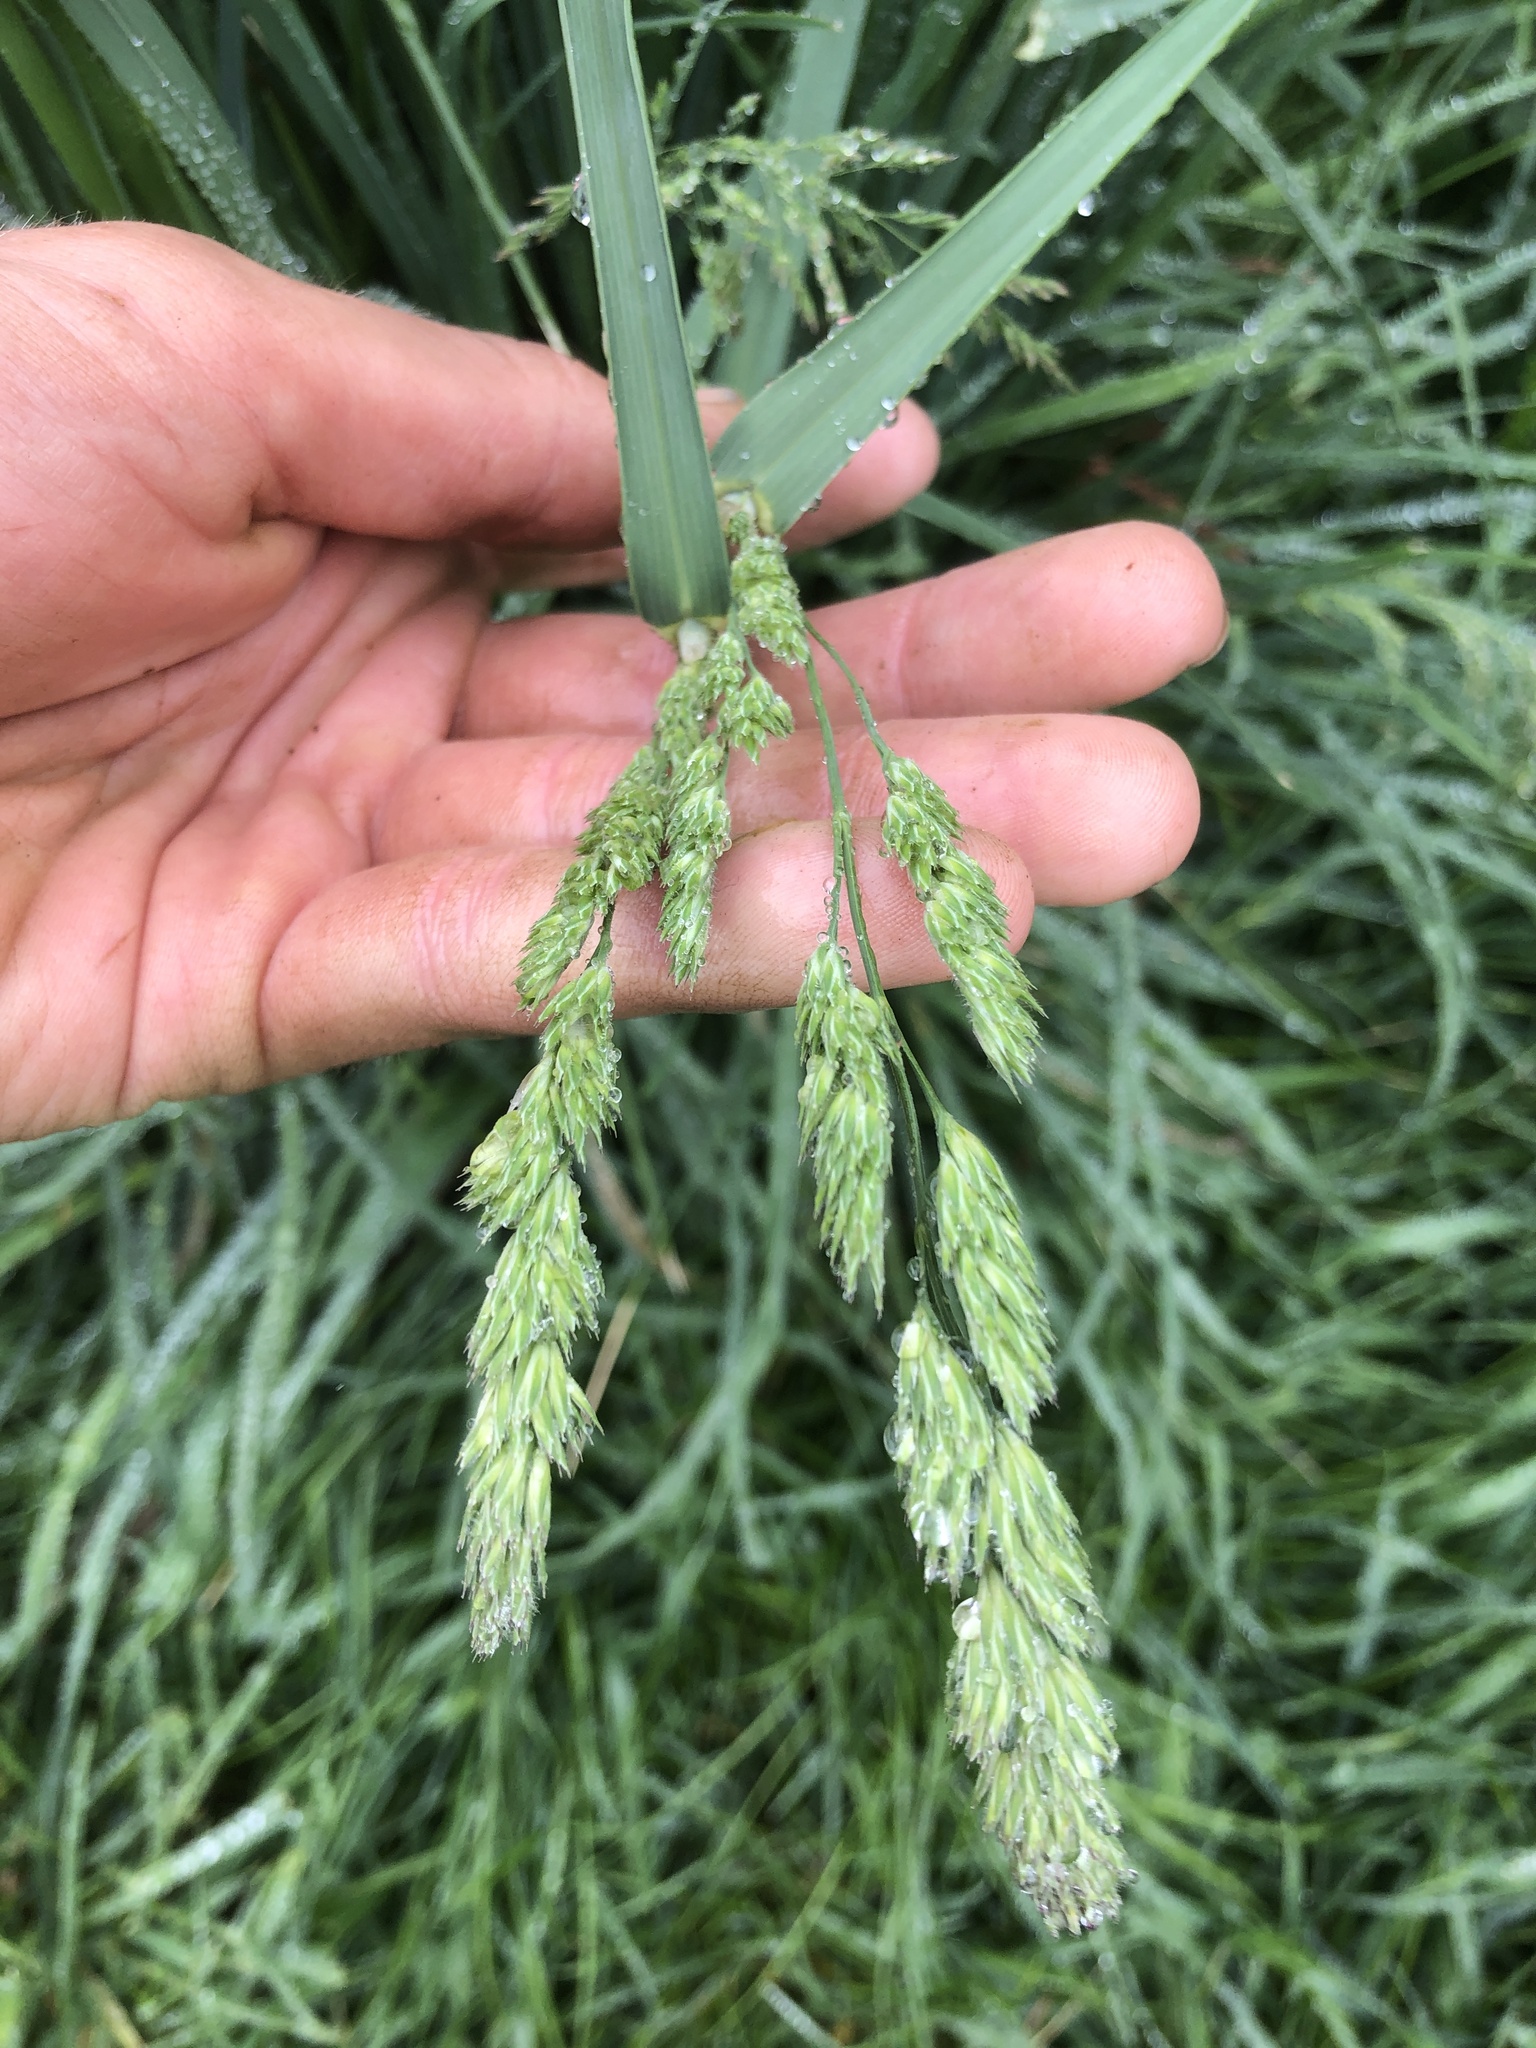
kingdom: Plantae
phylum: Tracheophyta
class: Liliopsida
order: Poales
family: Poaceae
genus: Dactylis
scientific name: Dactylis glomerata
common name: Orchardgrass
